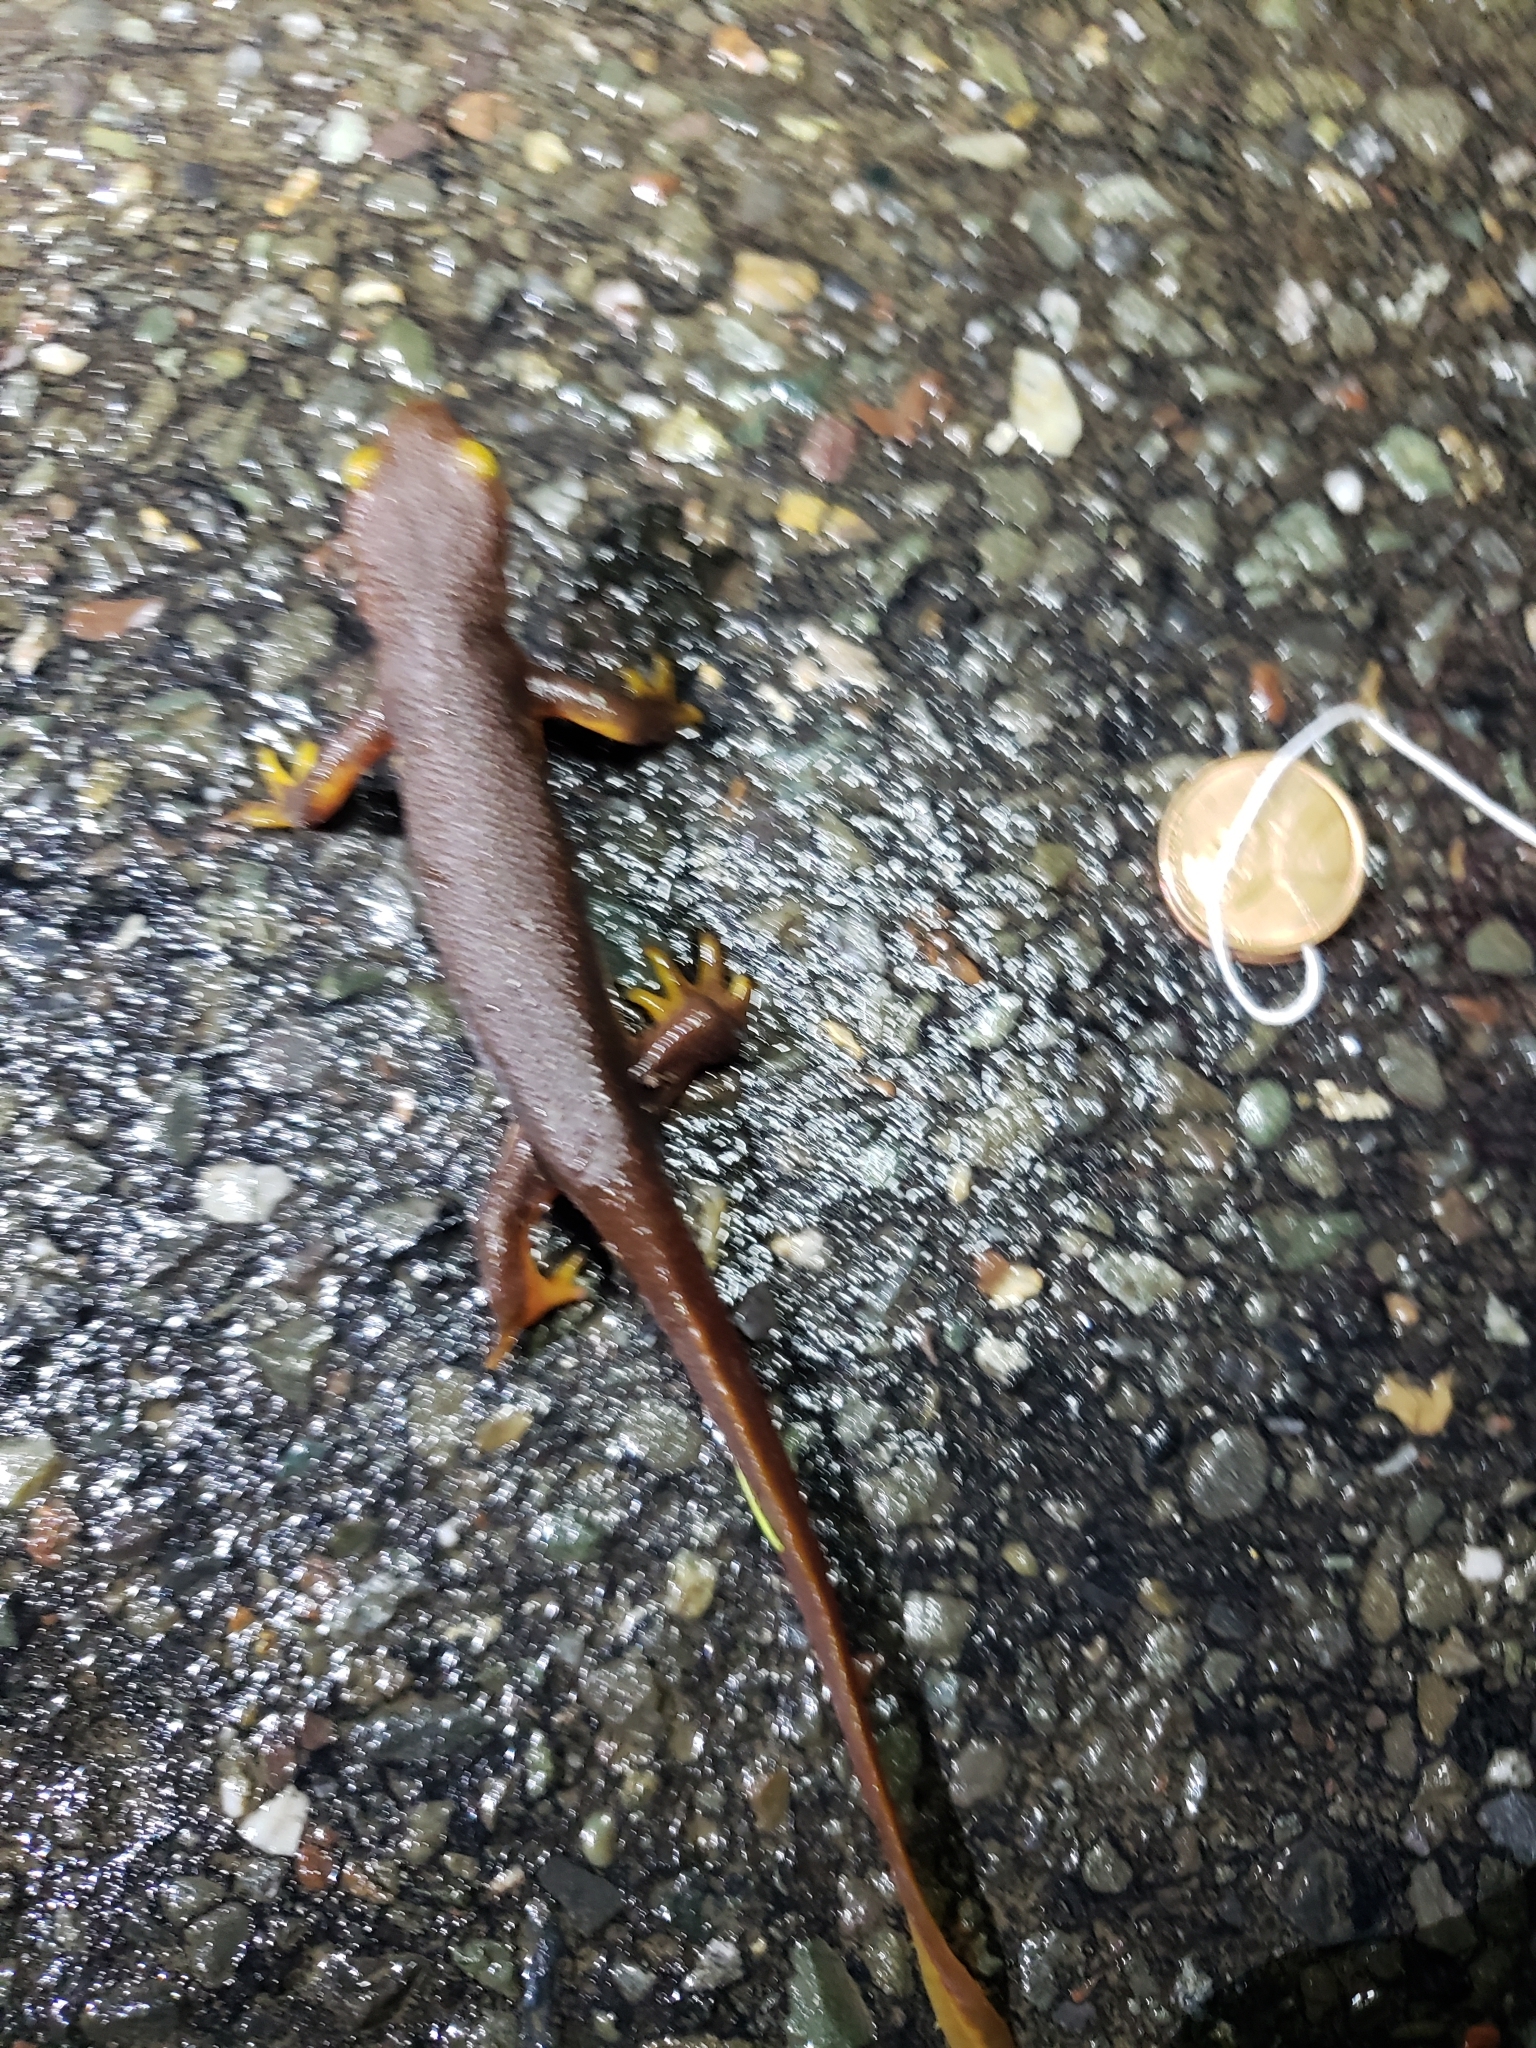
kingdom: Animalia
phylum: Chordata
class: Amphibia
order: Caudata
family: Salamandridae
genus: Taricha
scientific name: Taricha torosa
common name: California newt
